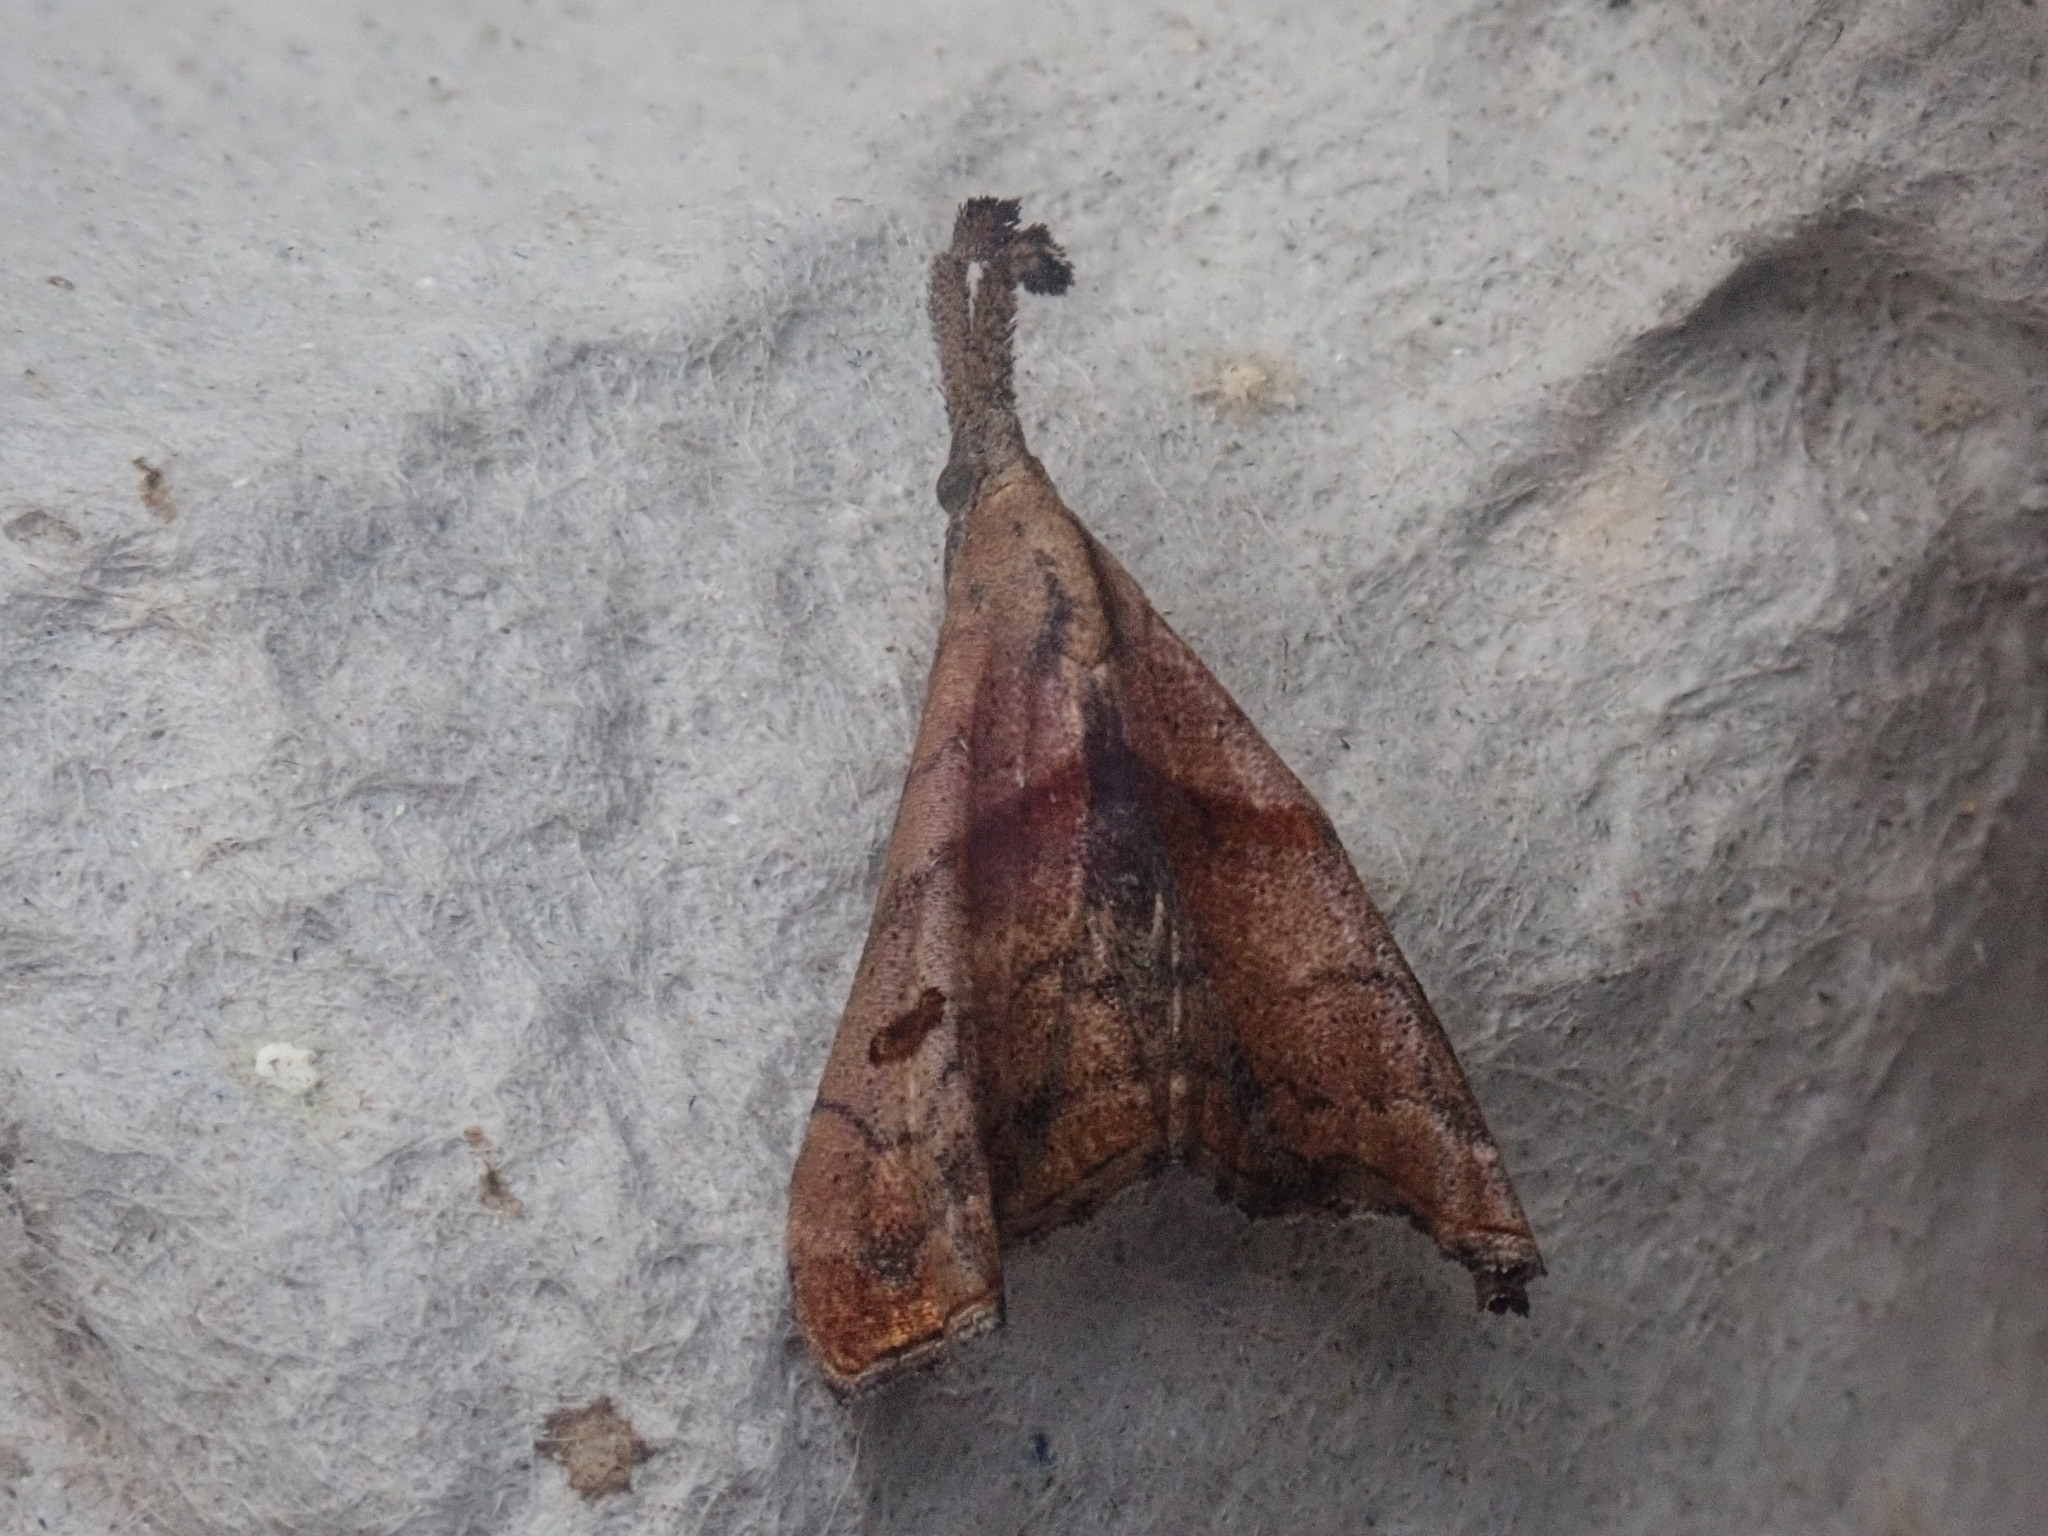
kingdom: Animalia
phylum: Arthropoda
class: Insecta
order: Lepidoptera
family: Erebidae
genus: Palthis
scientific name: Palthis angulalis
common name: Dark-spotted palthis moth
